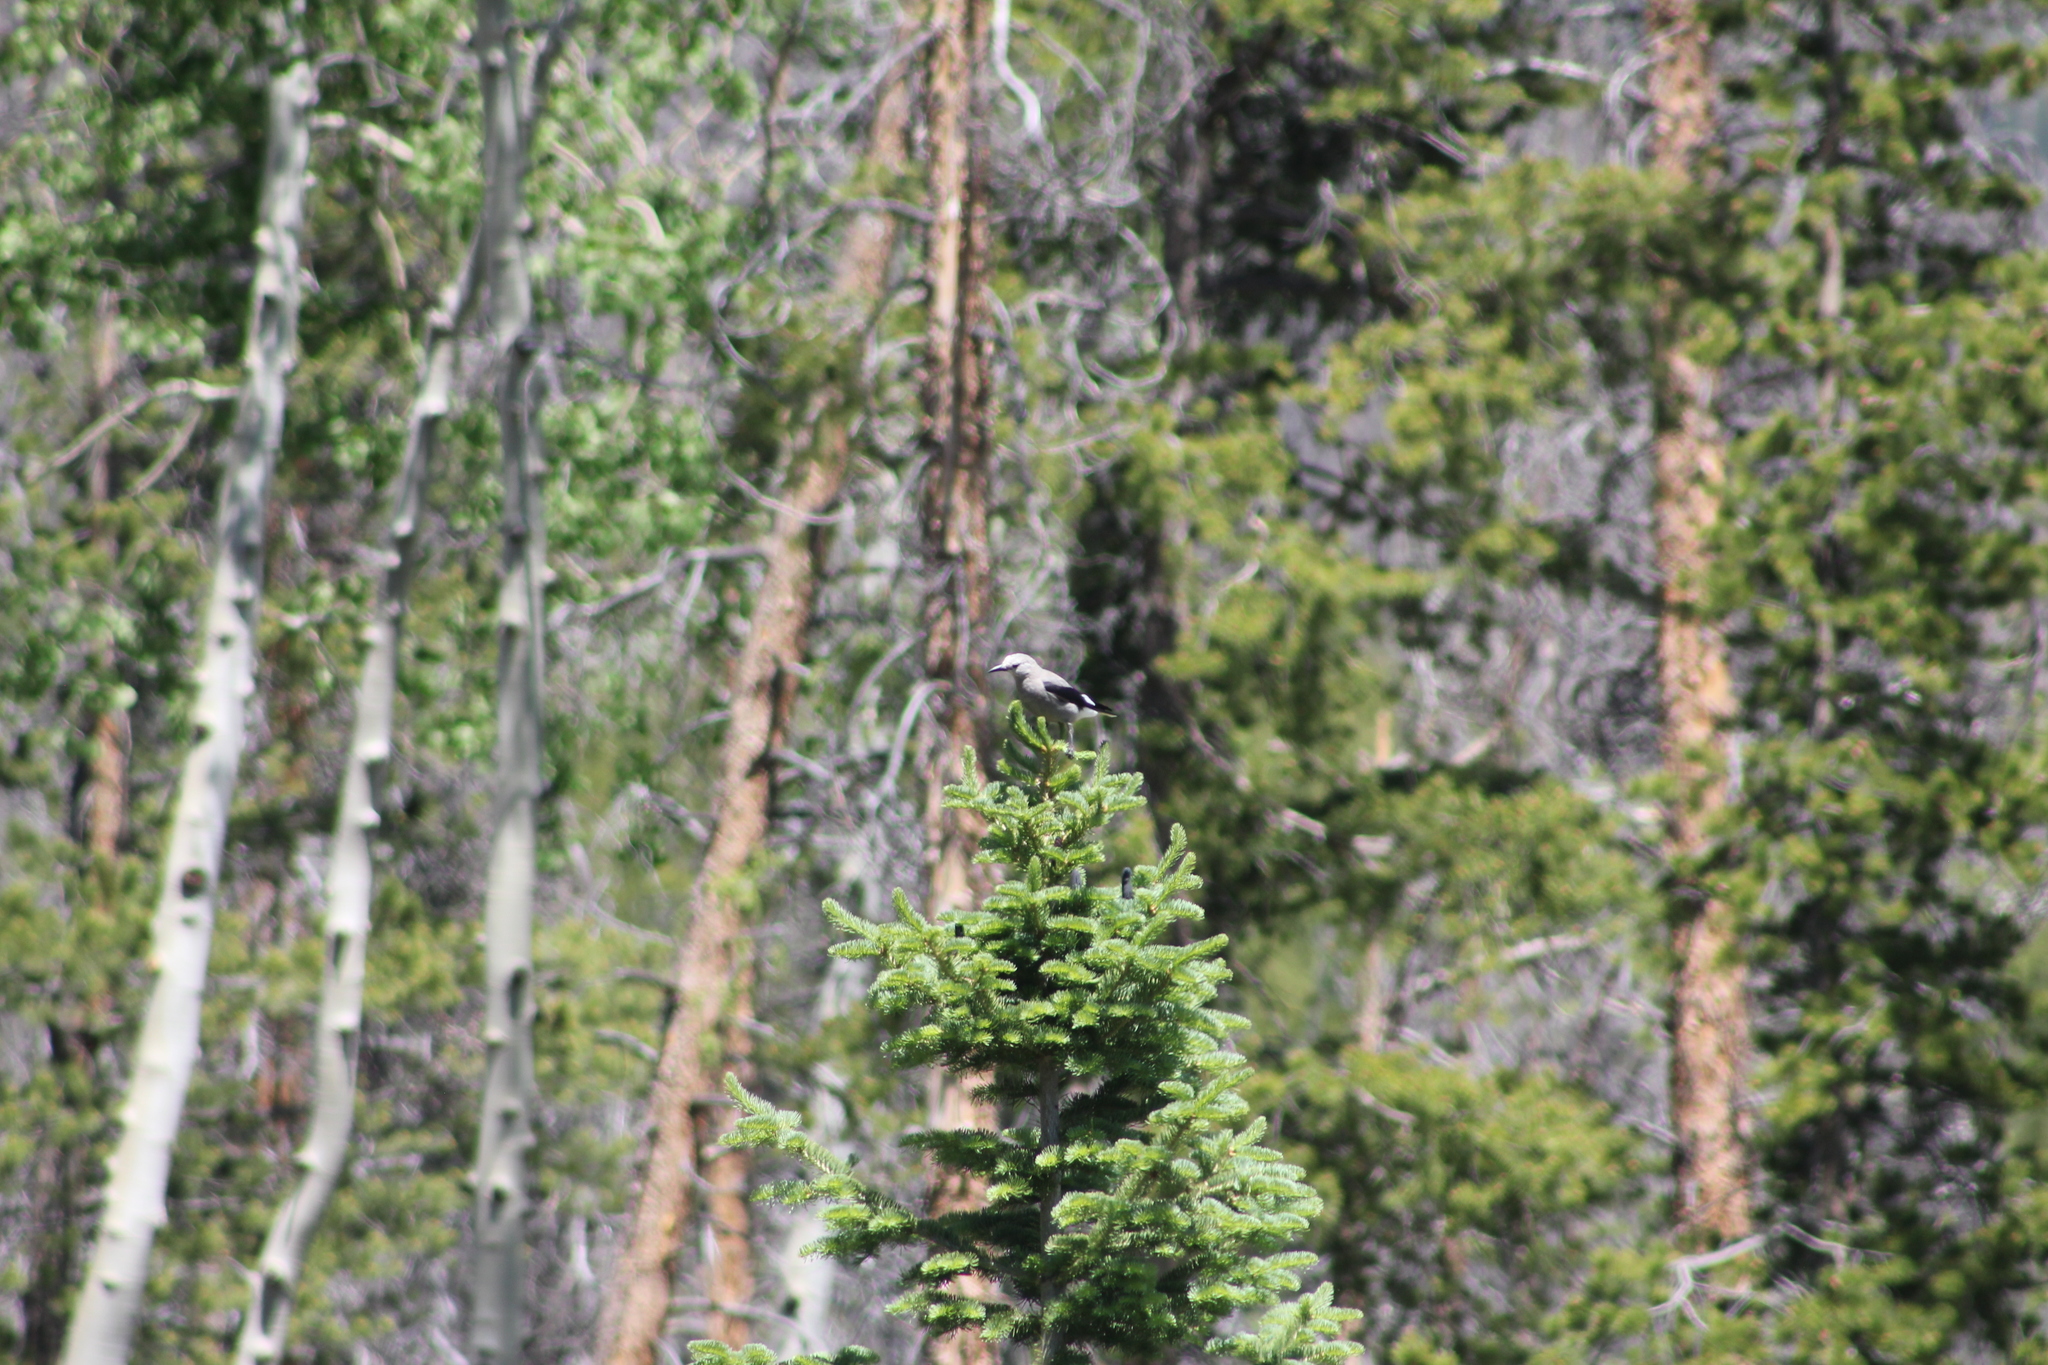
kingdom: Animalia
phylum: Chordata
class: Aves
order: Passeriformes
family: Corvidae
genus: Nucifraga
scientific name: Nucifraga columbiana
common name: Clark's nutcracker
